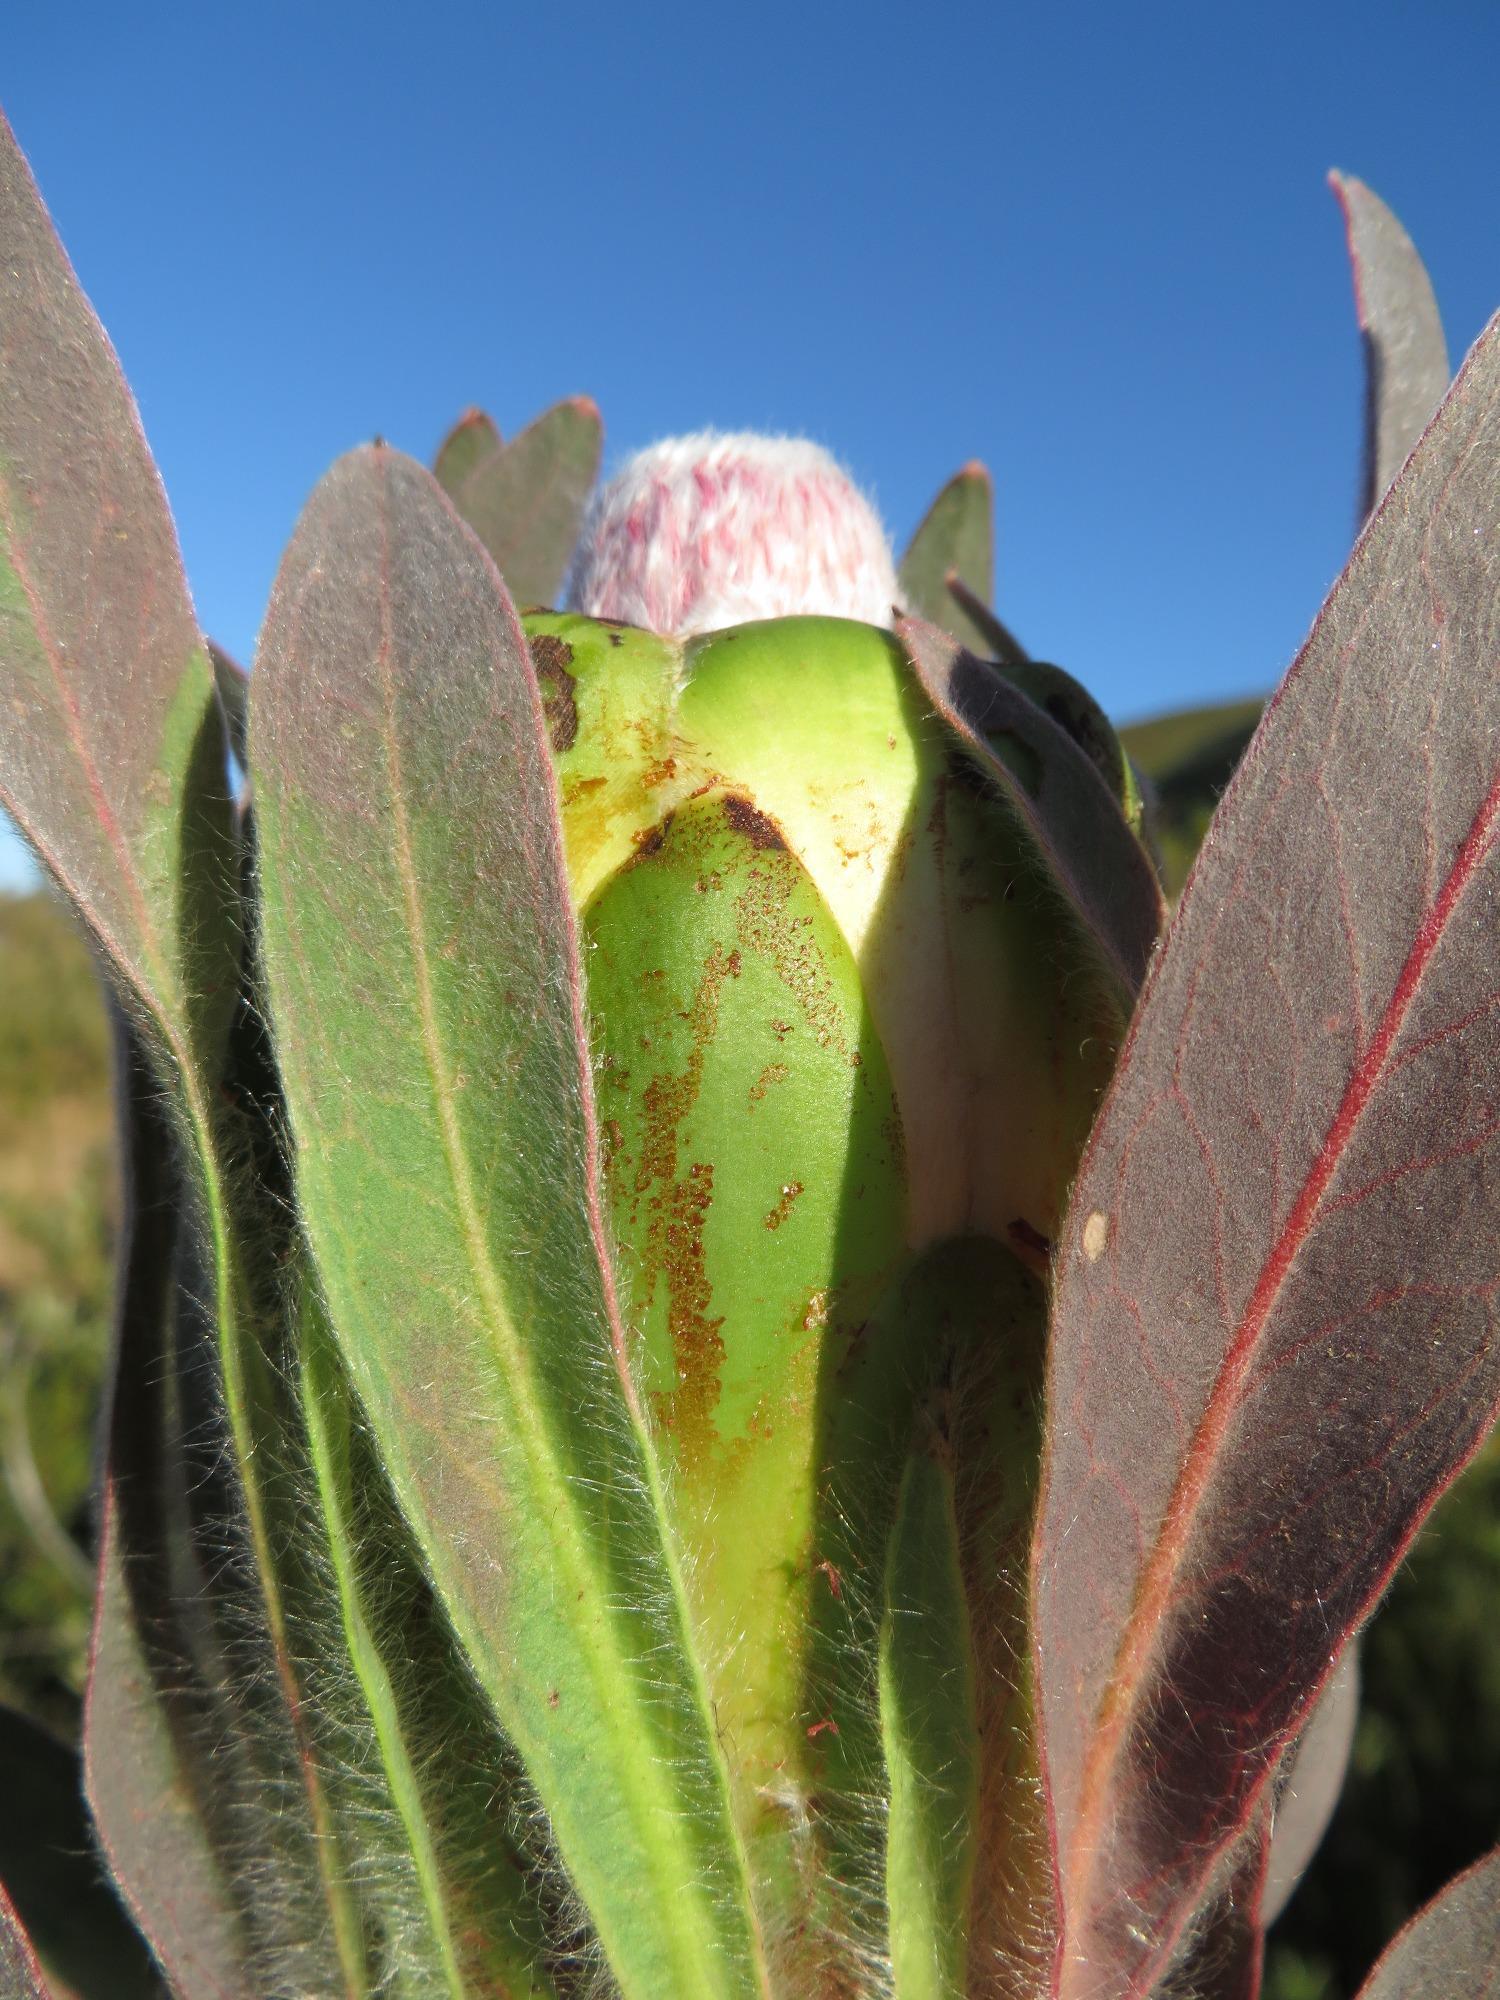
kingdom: Plantae
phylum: Tracheophyta
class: Magnoliopsida
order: Proteales
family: Proteaceae
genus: Protea
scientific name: Protea coronata
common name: Green sugarbush
